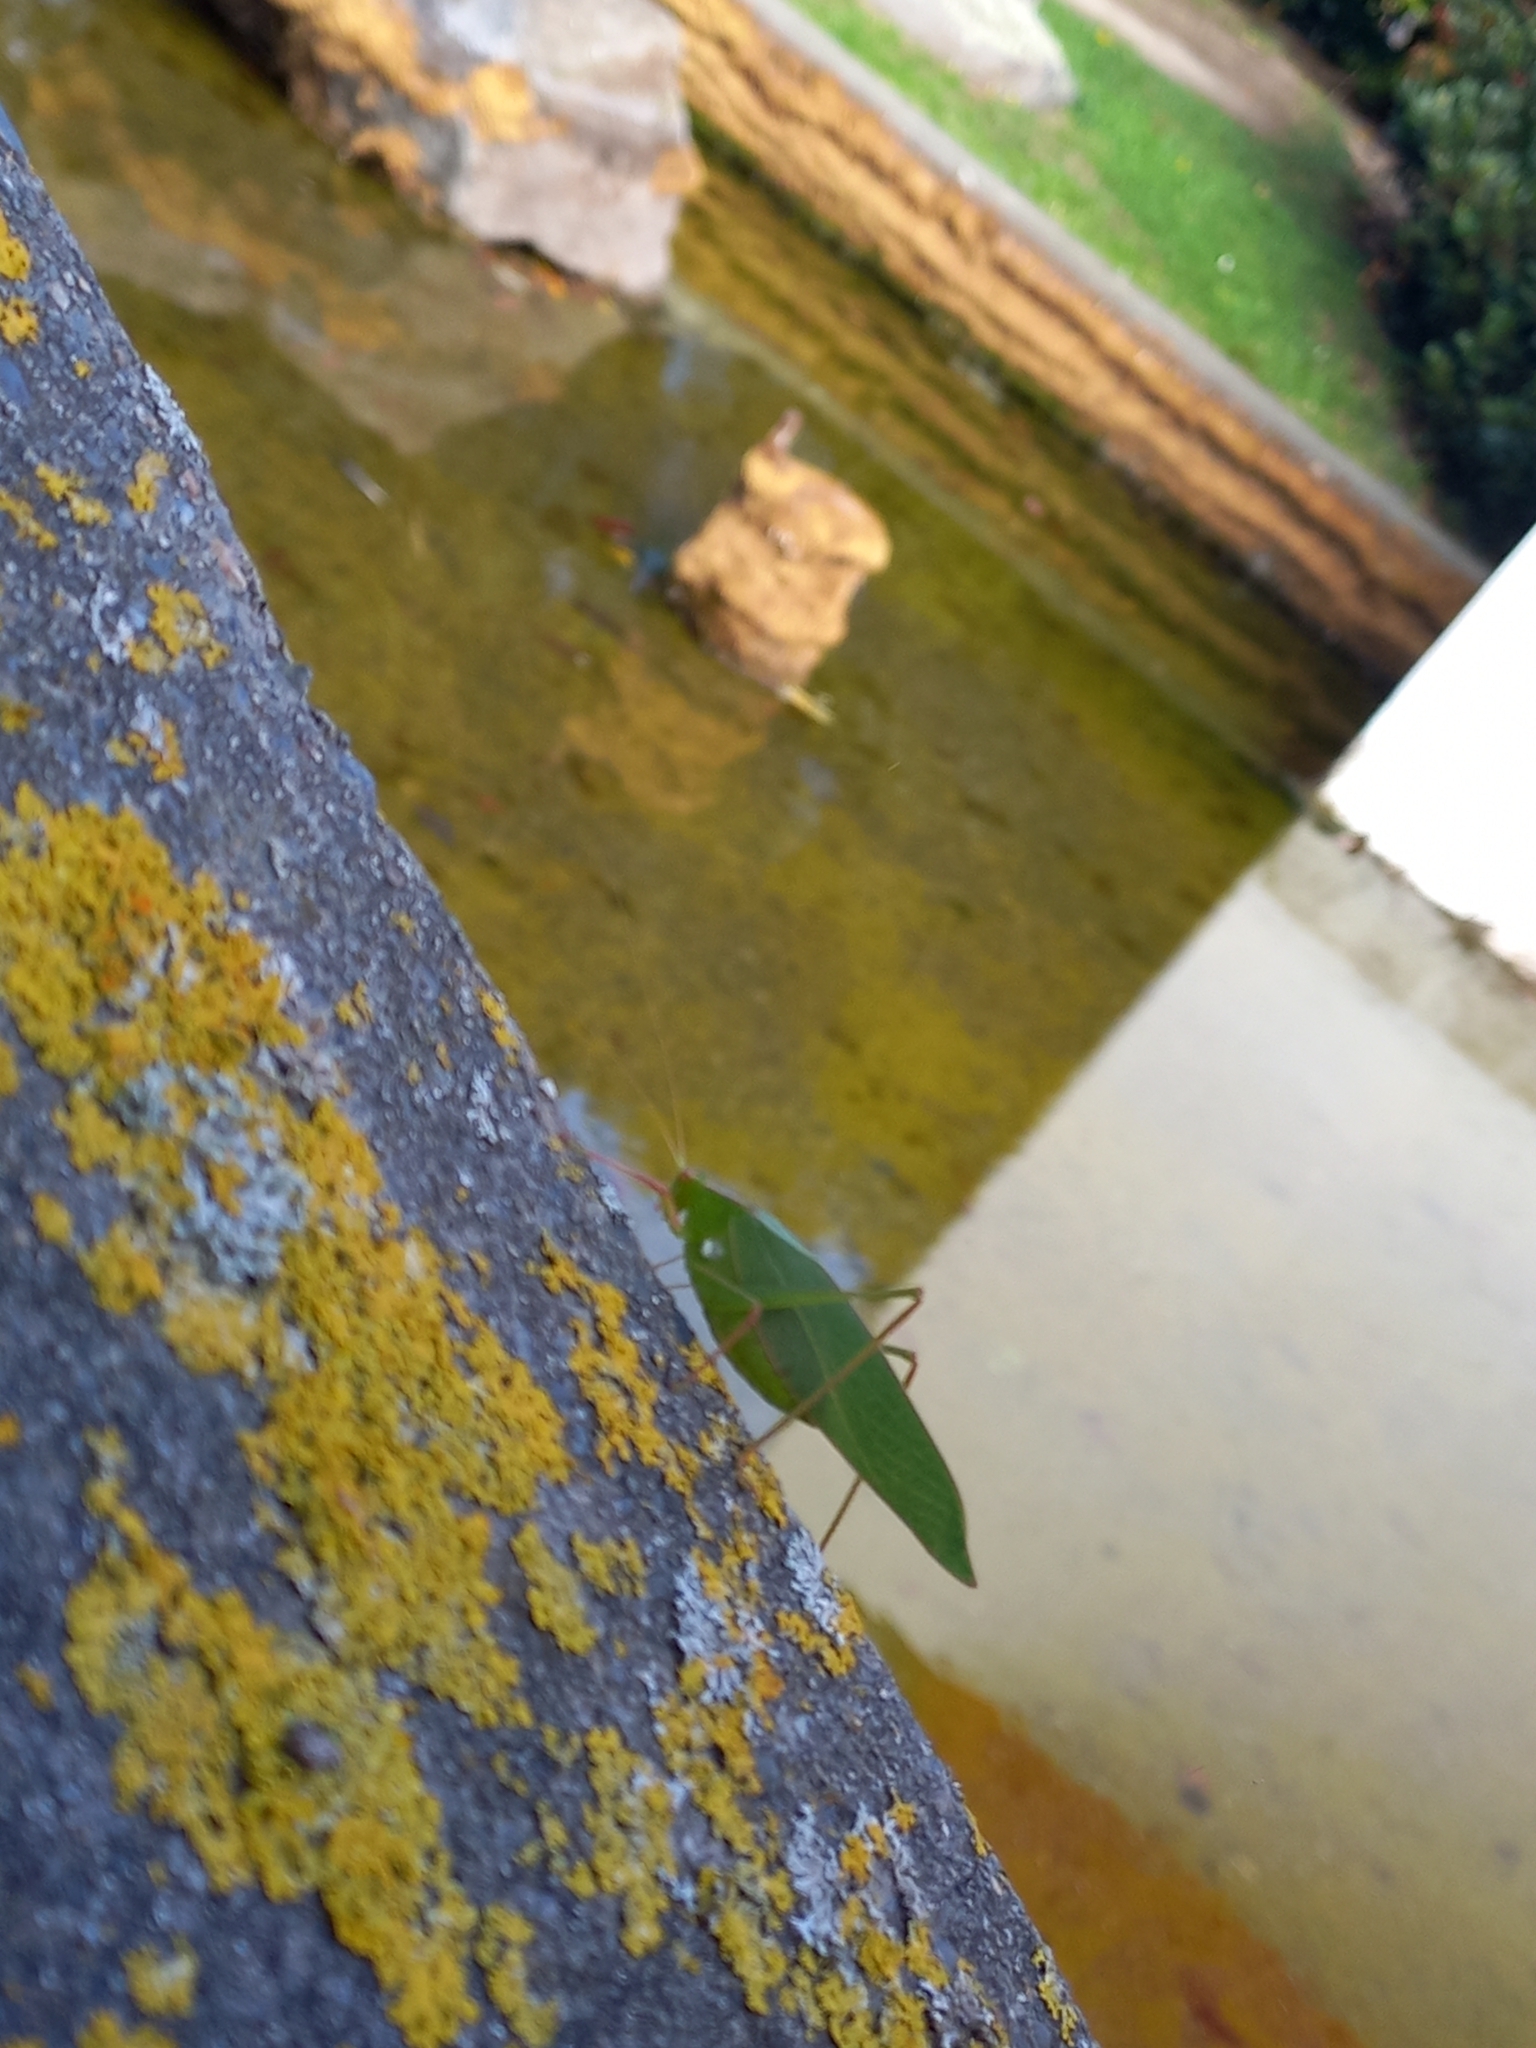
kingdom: Animalia
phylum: Arthropoda
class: Insecta
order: Orthoptera
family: Tettigoniidae
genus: Caedicia
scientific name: Caedicia simplex
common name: Common garden katydid
